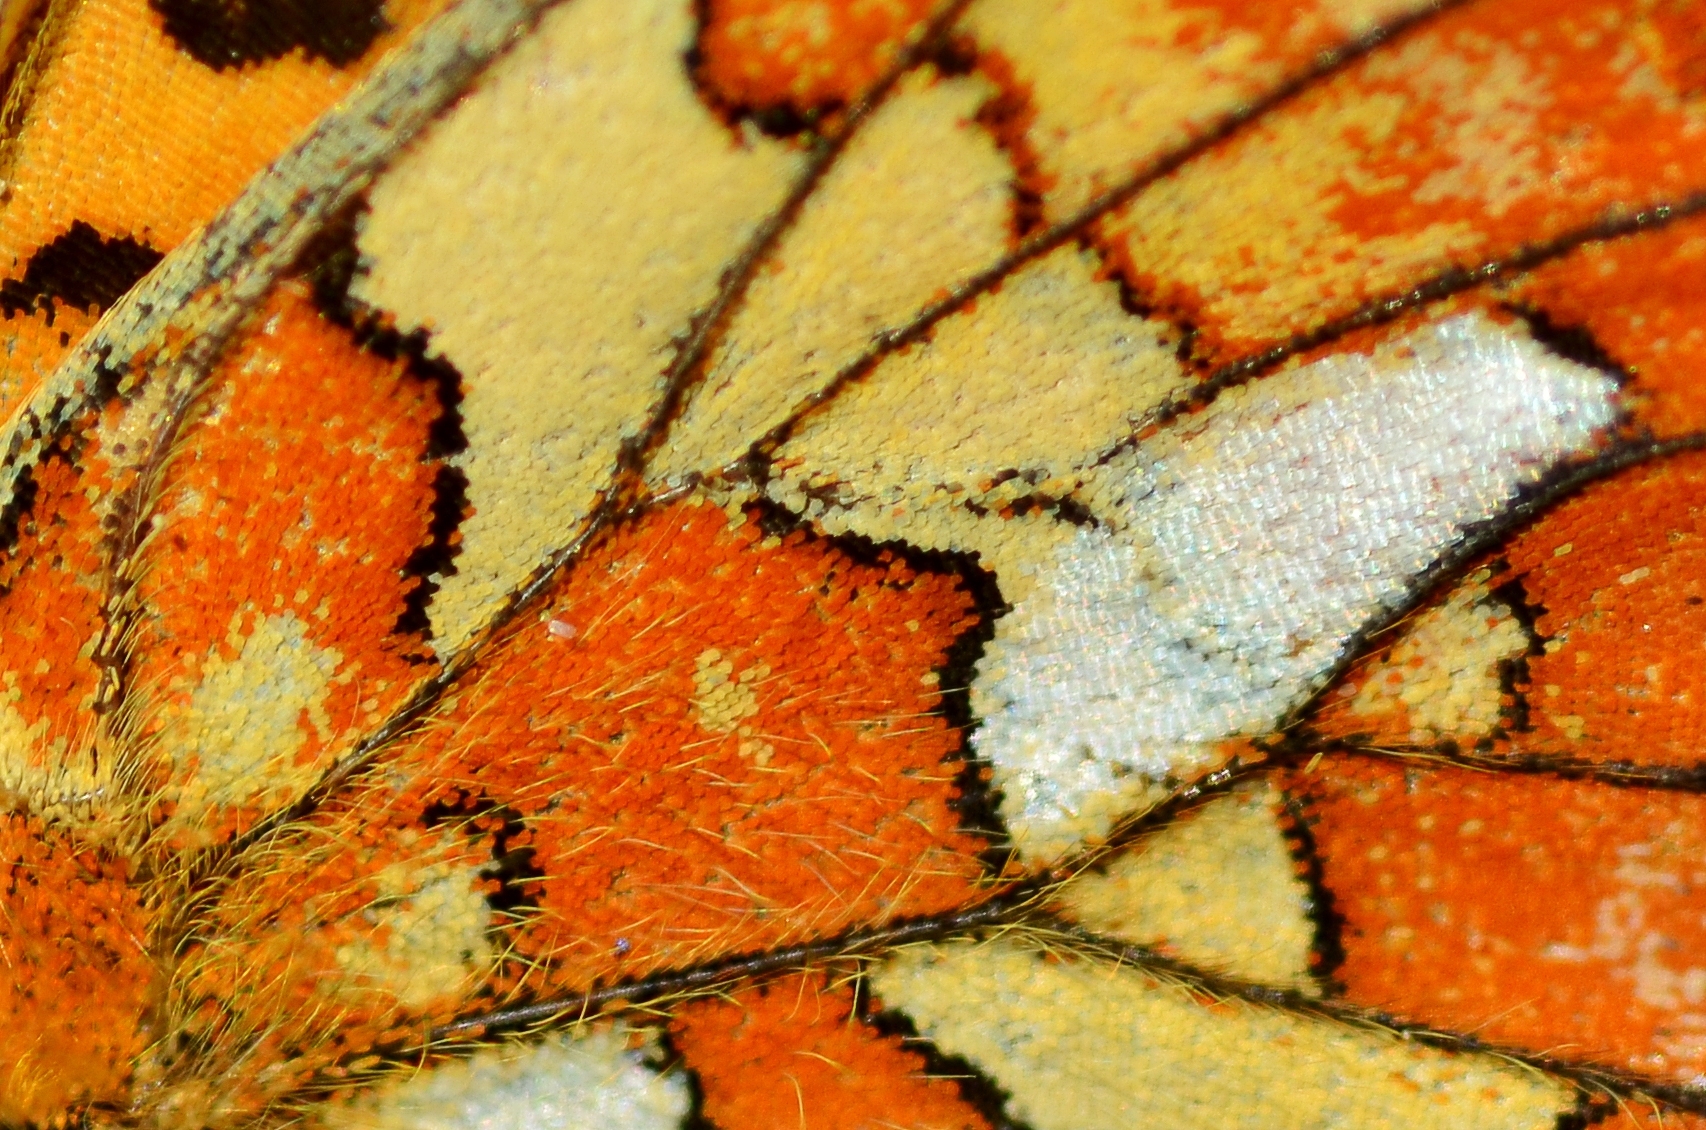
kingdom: Animalia
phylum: Arthropoda
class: Insecta
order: Lepidoptera
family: Nymphalidae
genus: Clossiana
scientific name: Clossiana euphrosyne
